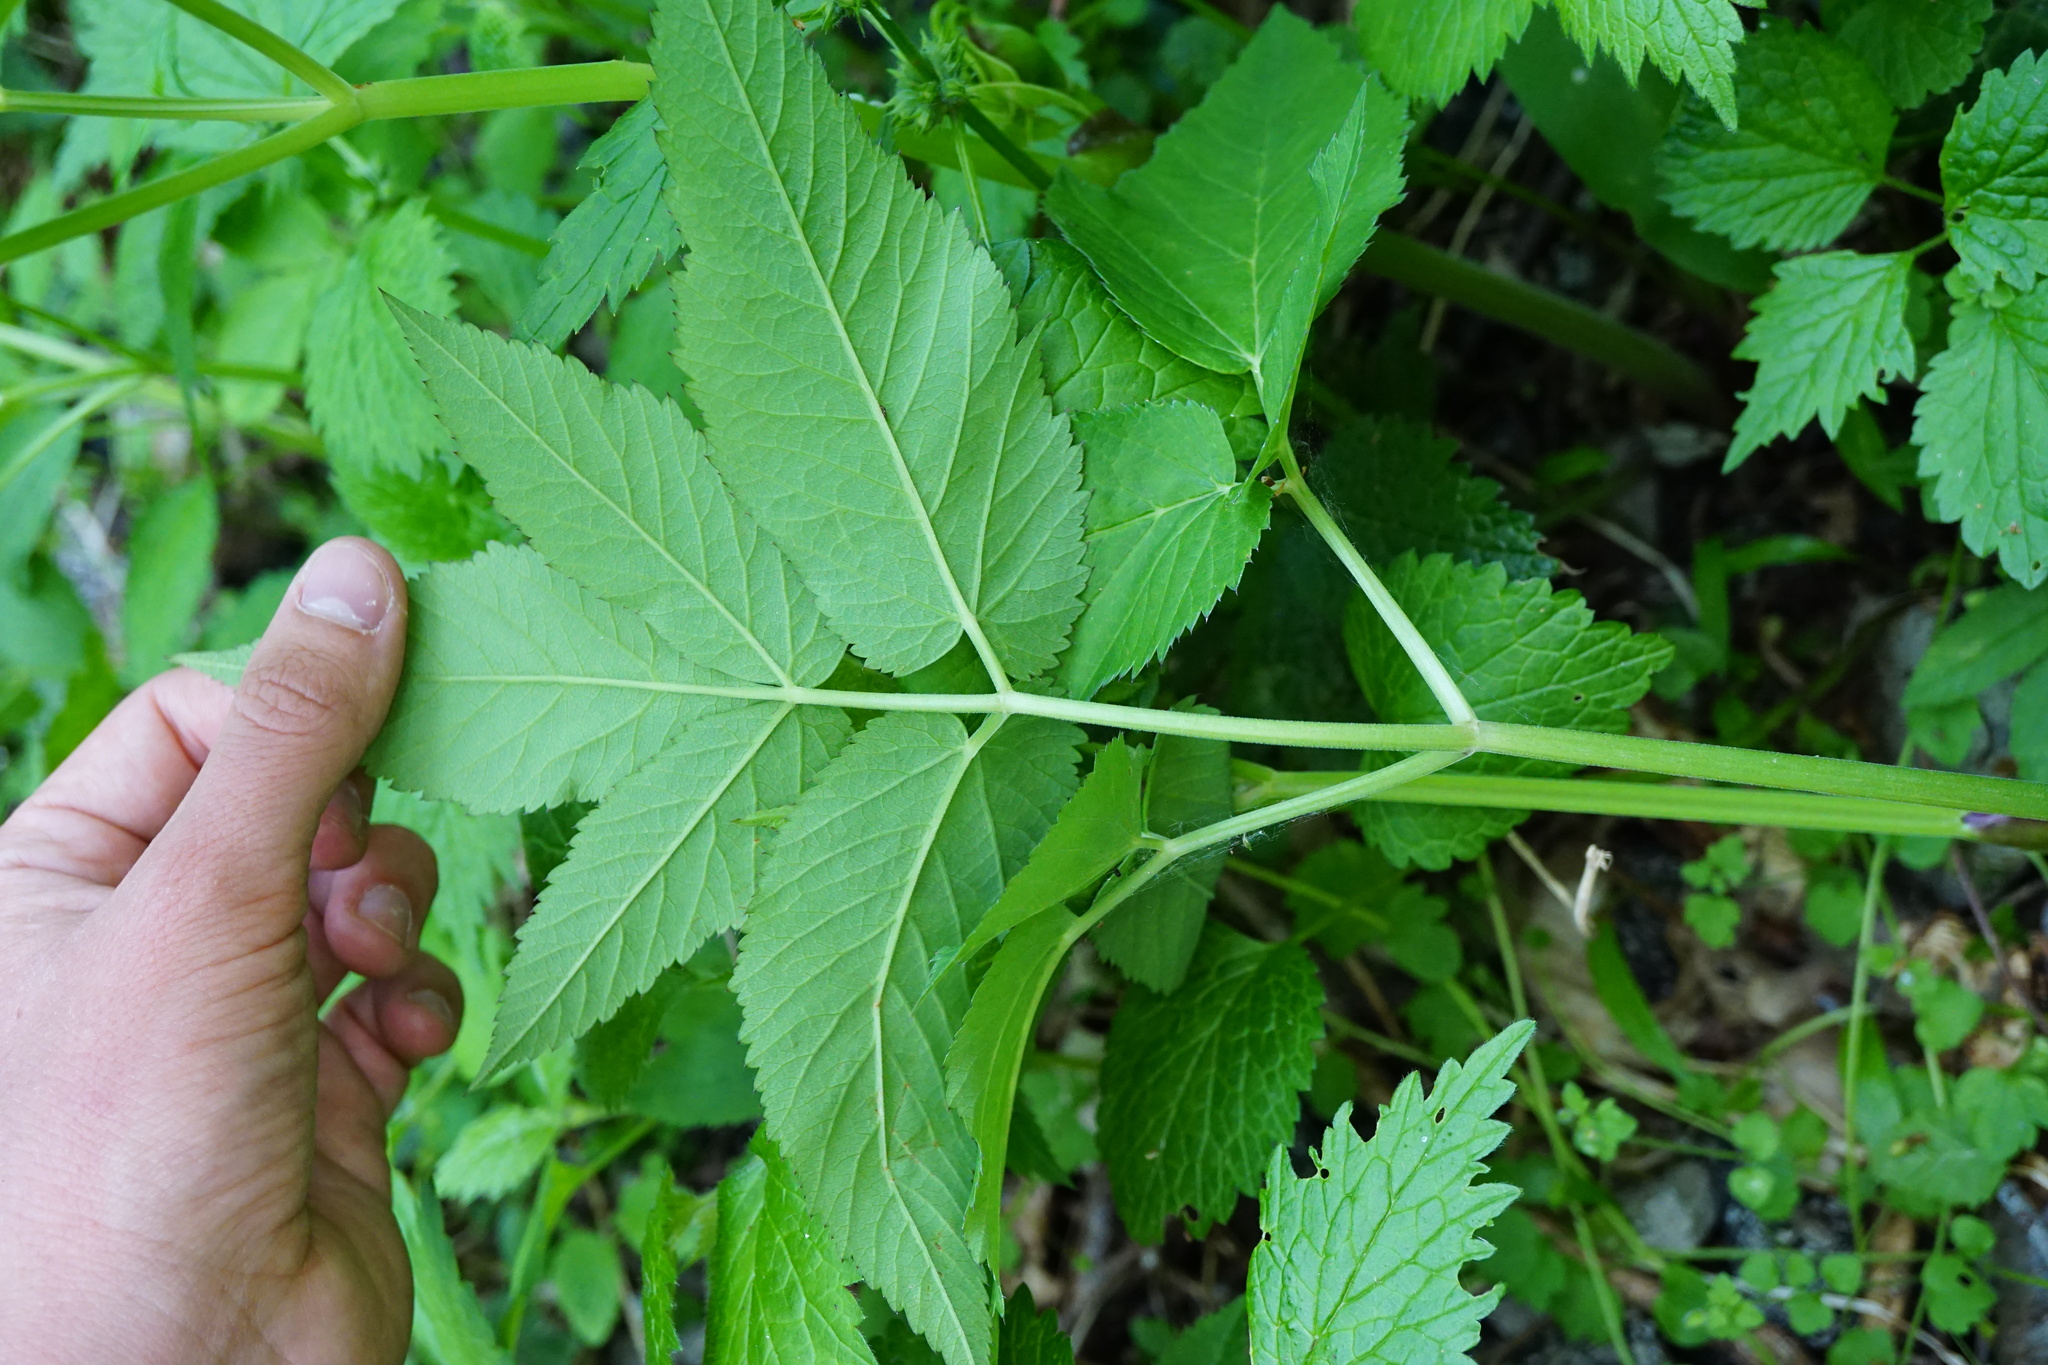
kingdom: Plantae
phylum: Tracheophyta
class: Magnoliopsida
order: Apiales
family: Apiaceae
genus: Aegopodium
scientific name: Aegopodium podagraria
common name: Ground-elder
